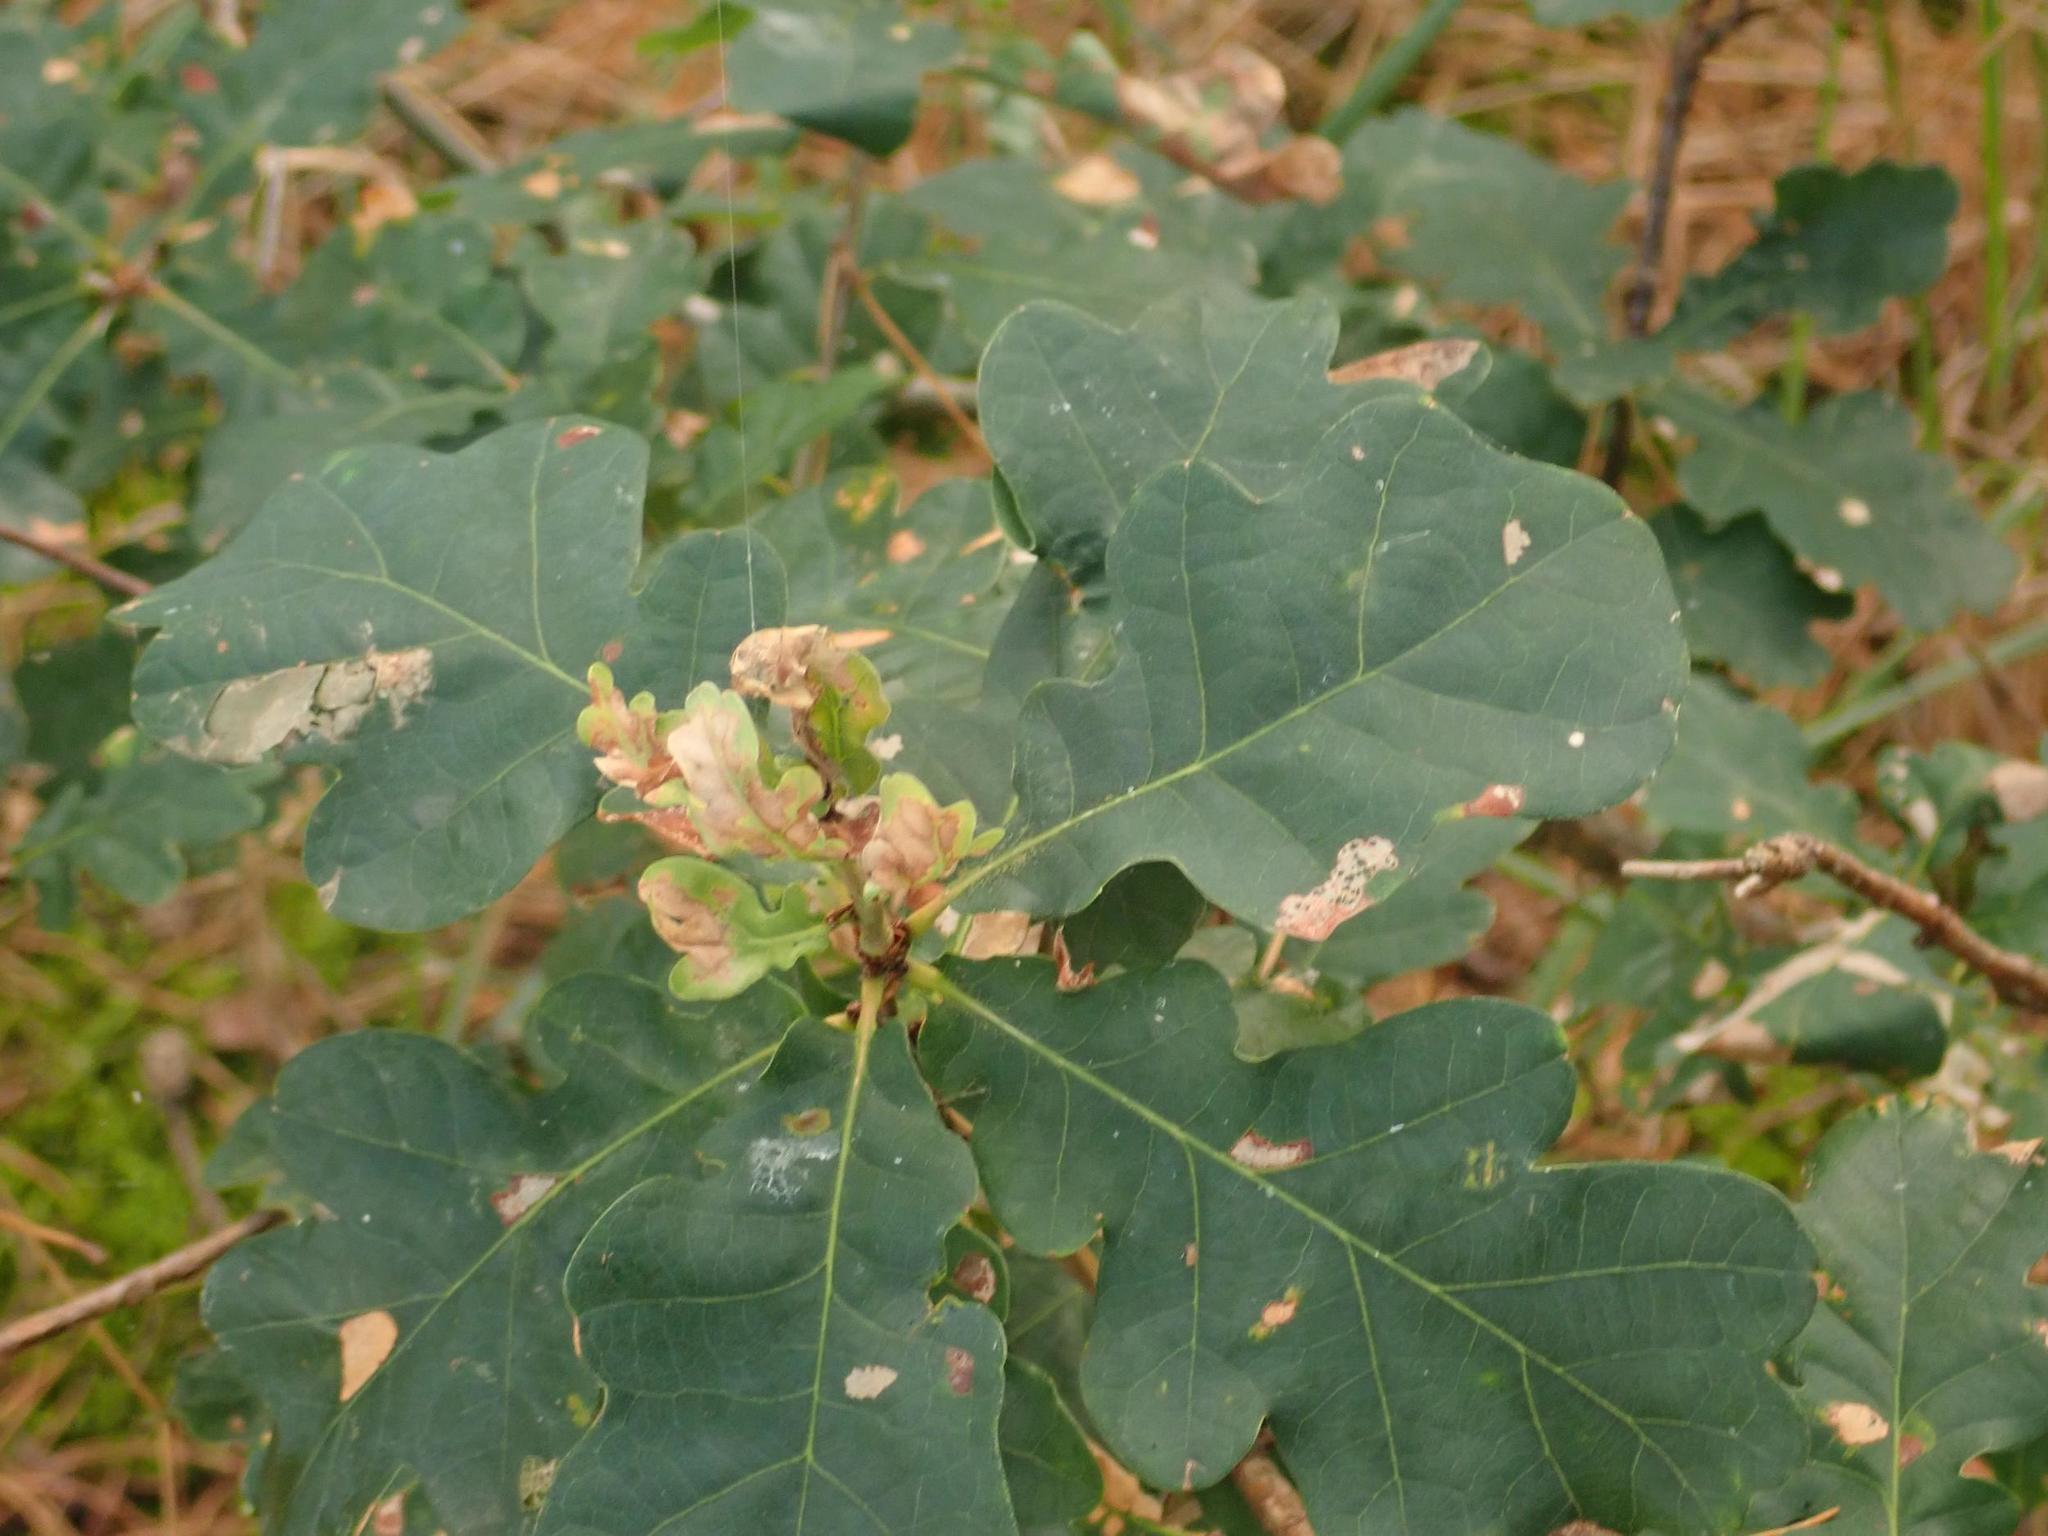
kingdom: Plantae
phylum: Tracheophyta
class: Magnoliopsida
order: Fagales
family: Fagaceae
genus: Quercus
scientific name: Quercus robur
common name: Pedunculate oak
